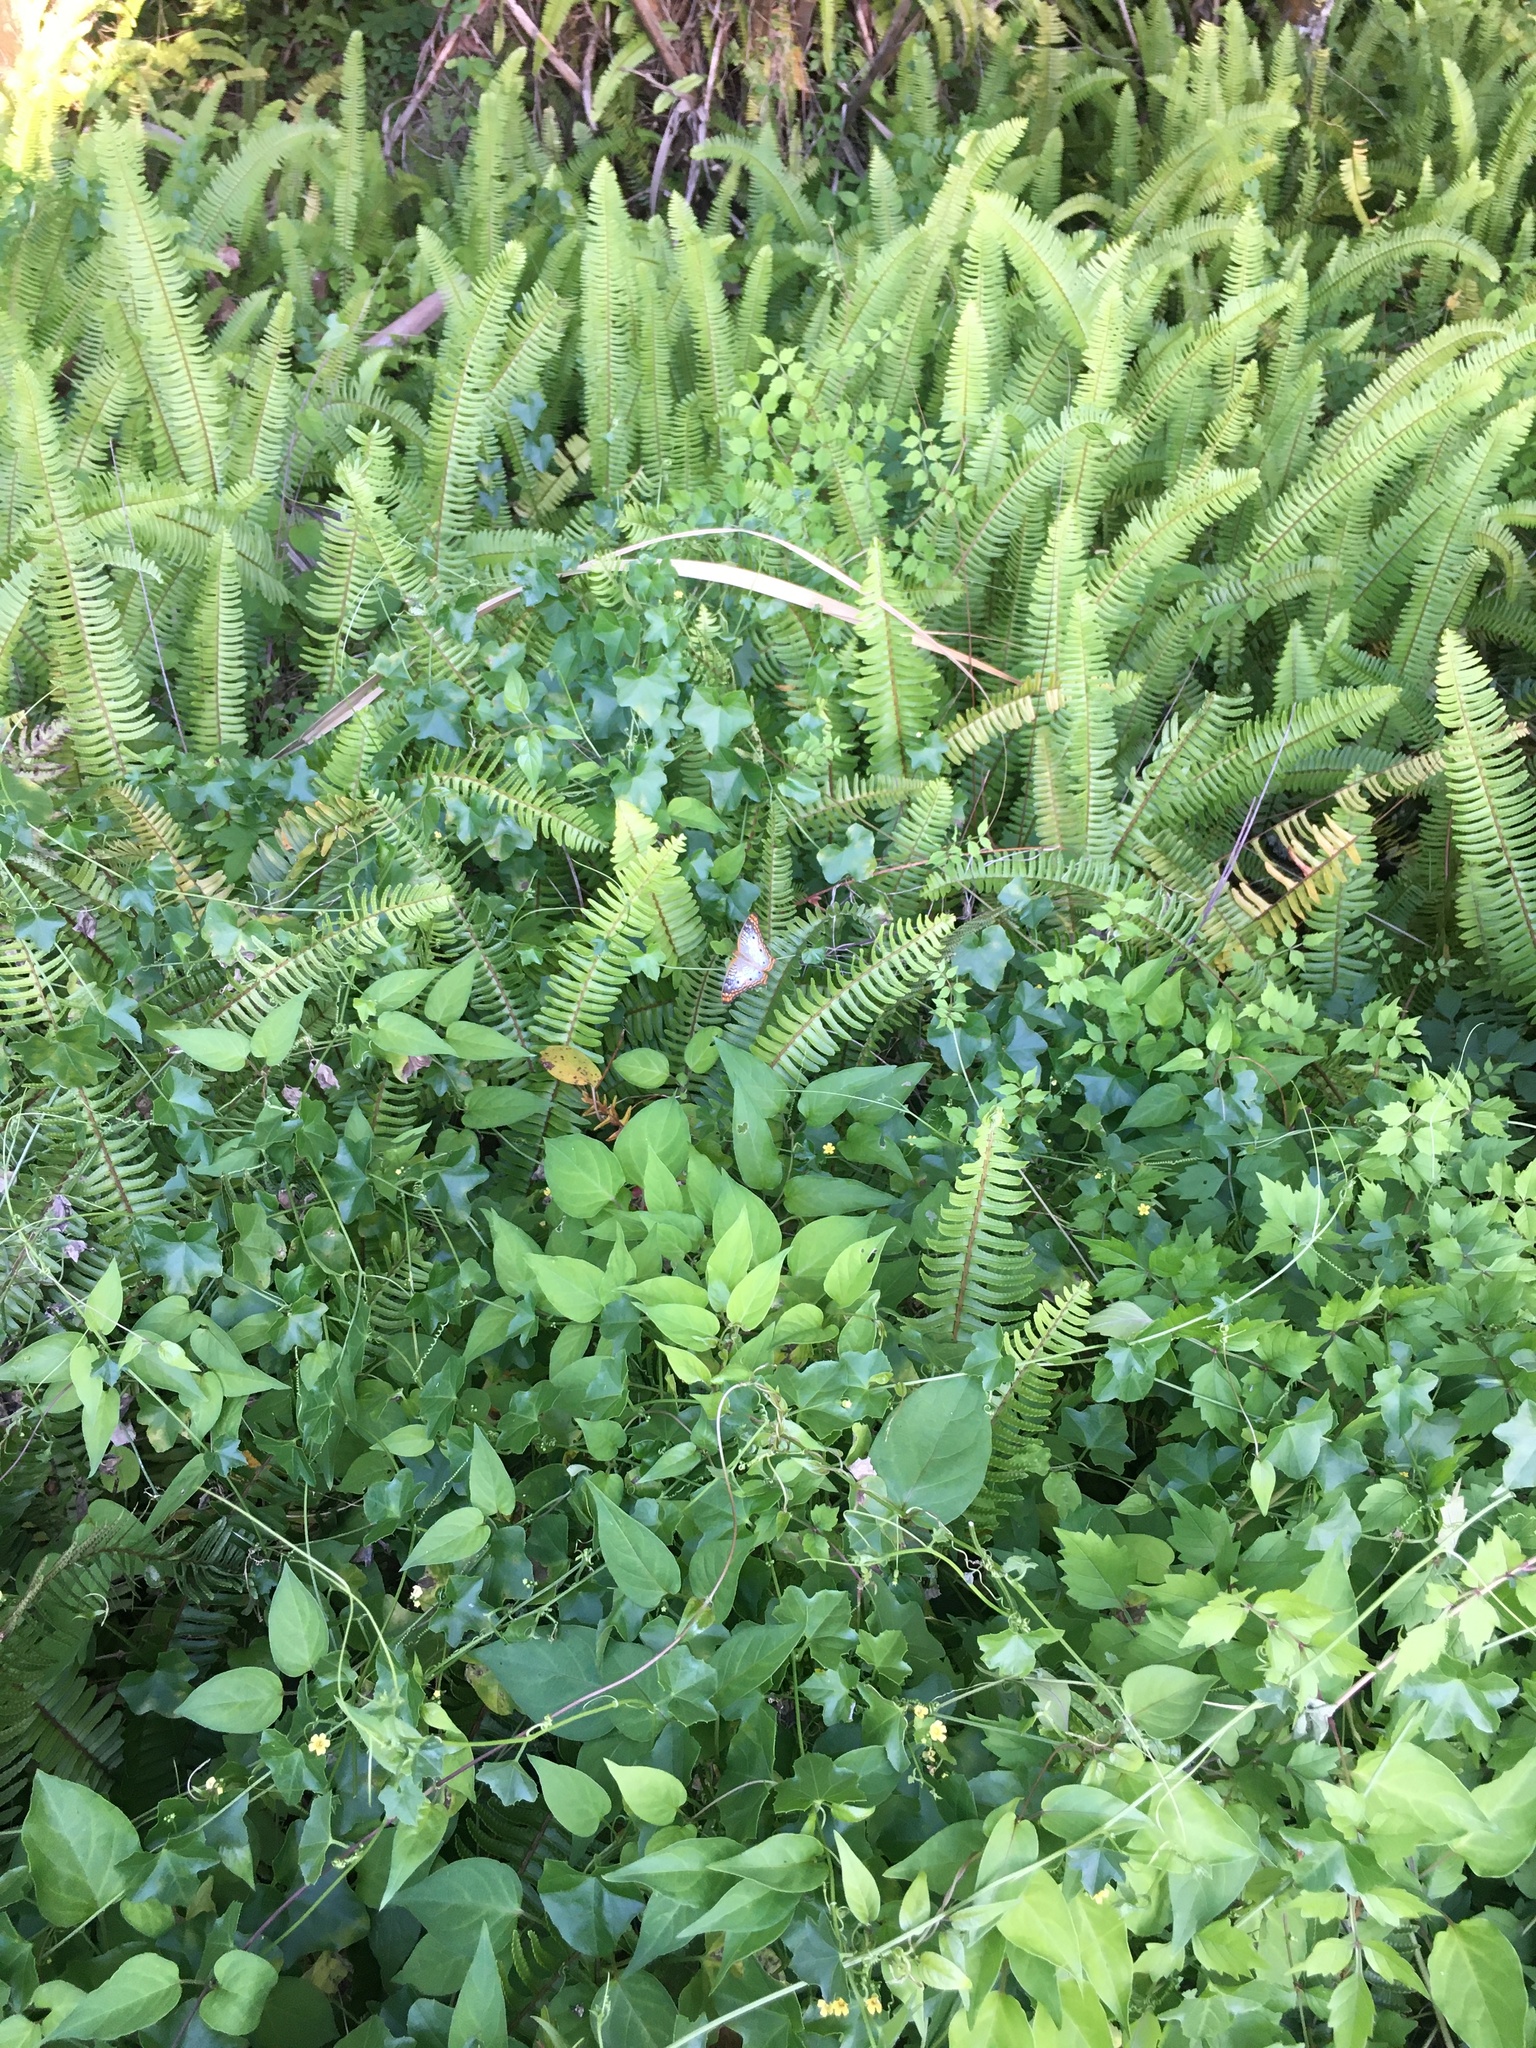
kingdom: Animalia
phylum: Arthropoda
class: Insecta
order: Lepidoptera
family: Nymphalidae
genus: Anartia
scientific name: Anartia jatrophae
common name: White peacock
